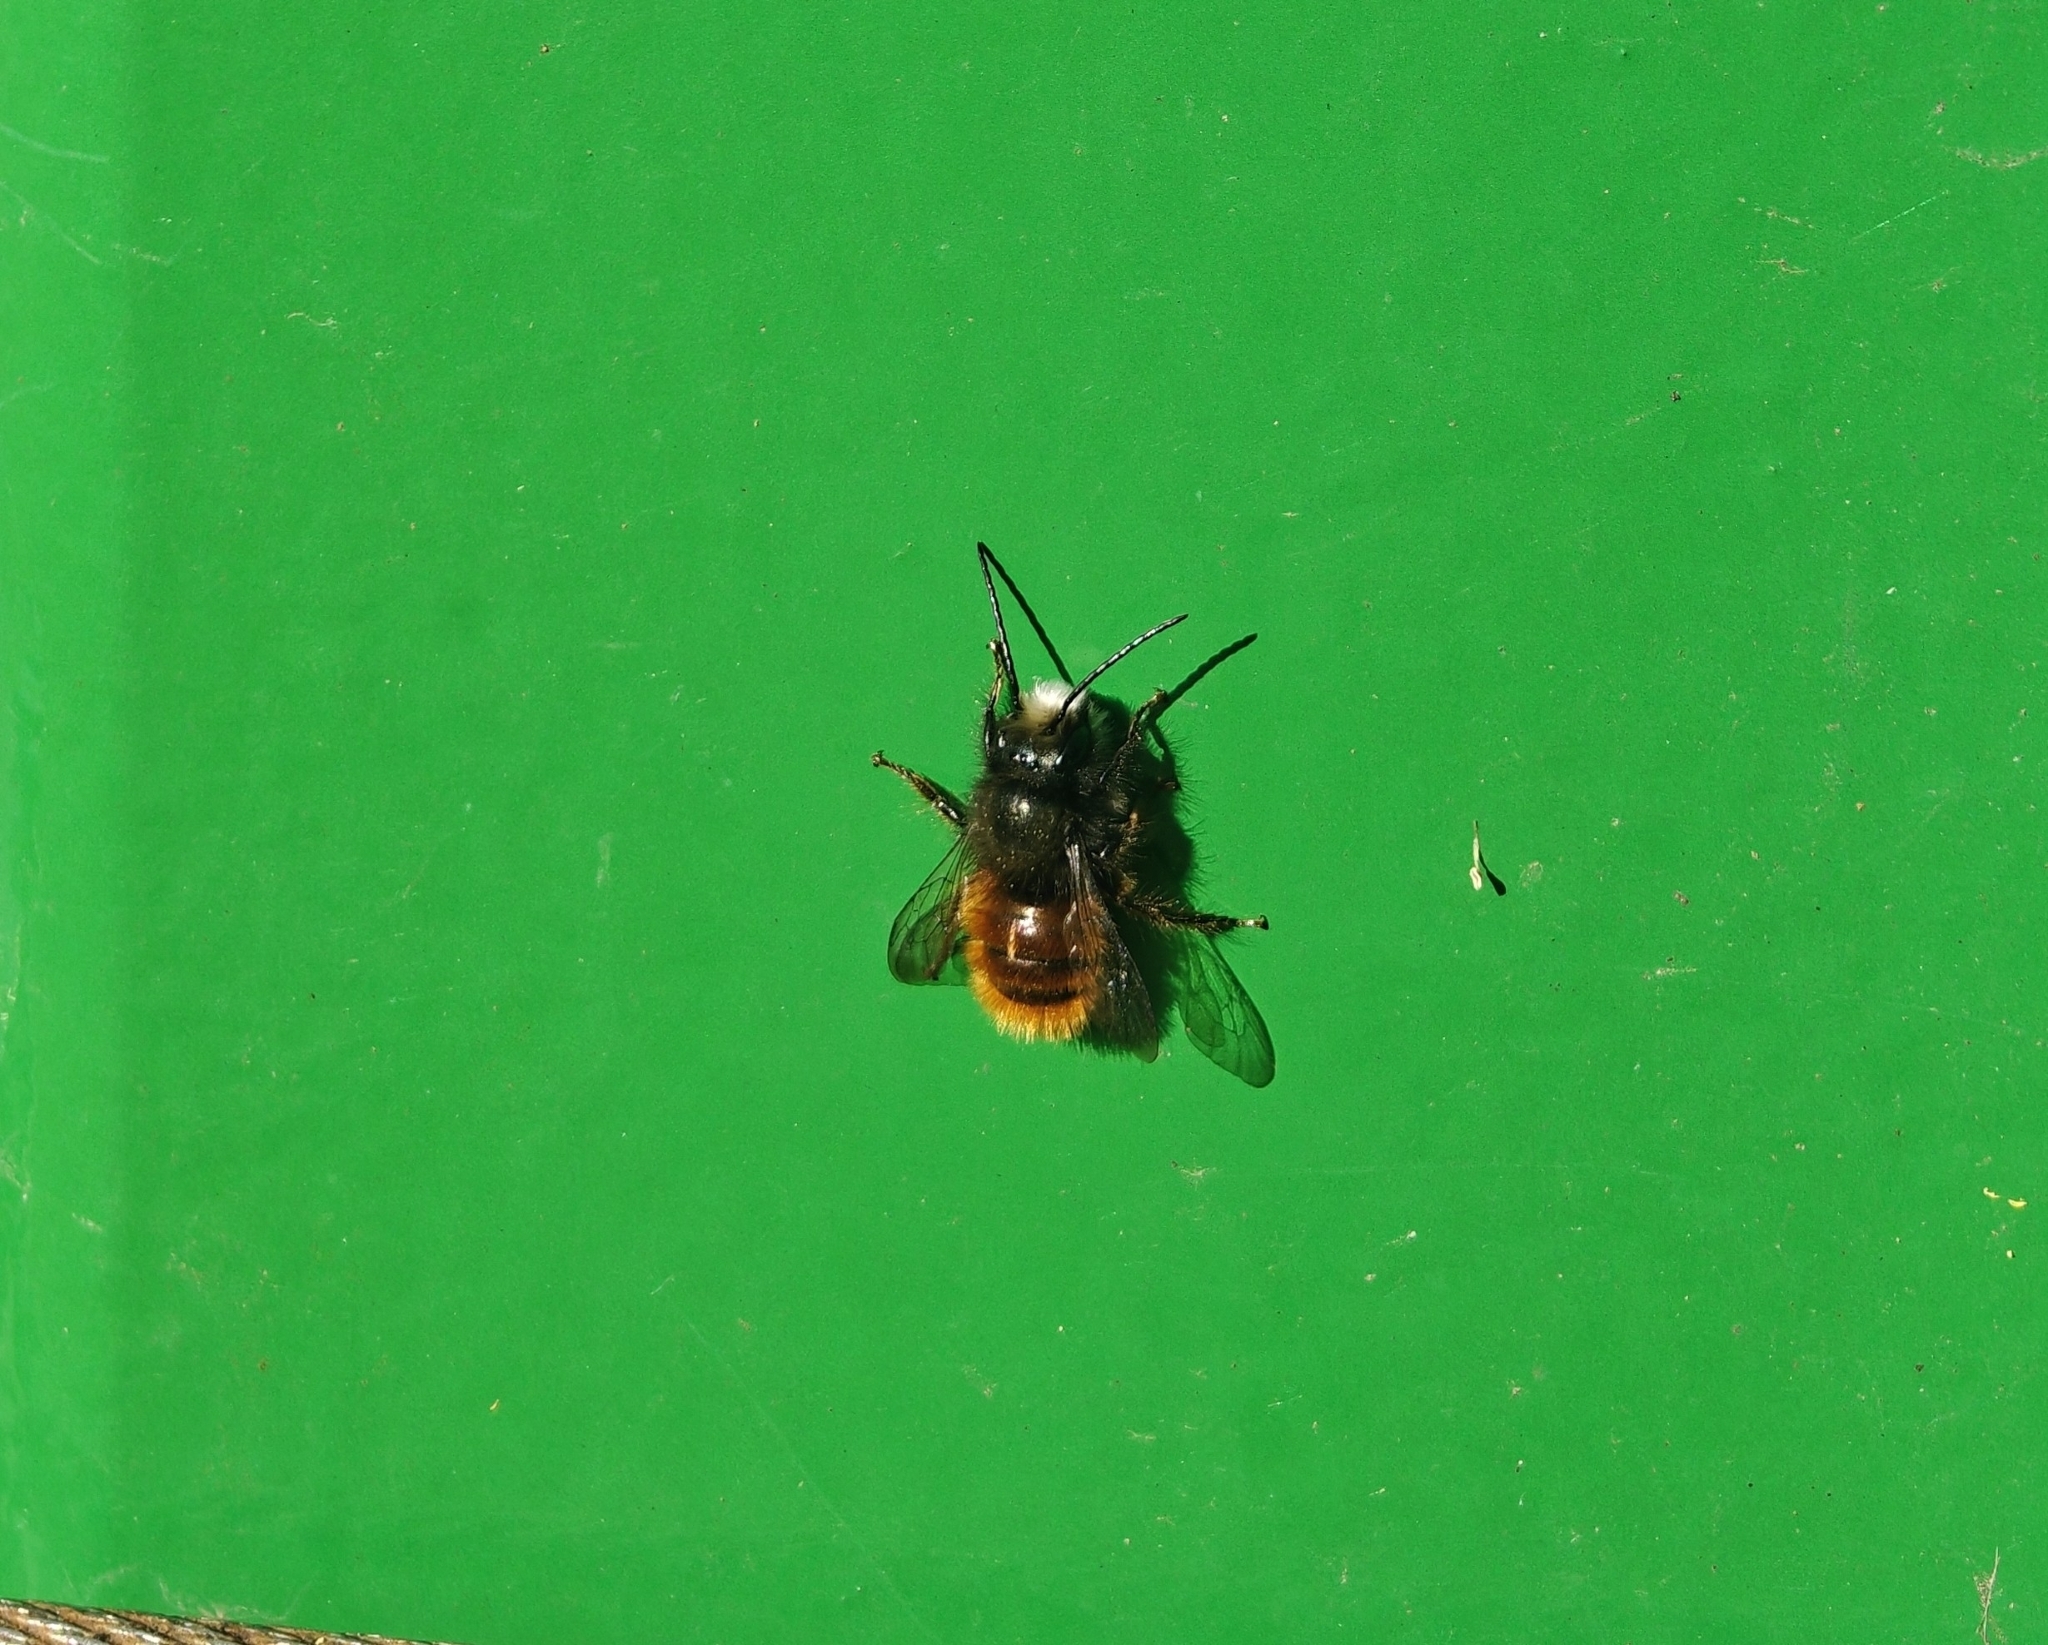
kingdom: Animalia
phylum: Arthropoda
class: Insecta
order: Hymenoptera
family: Megachilidae
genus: Osmia
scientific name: Osmia cornuta
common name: Mason bee
